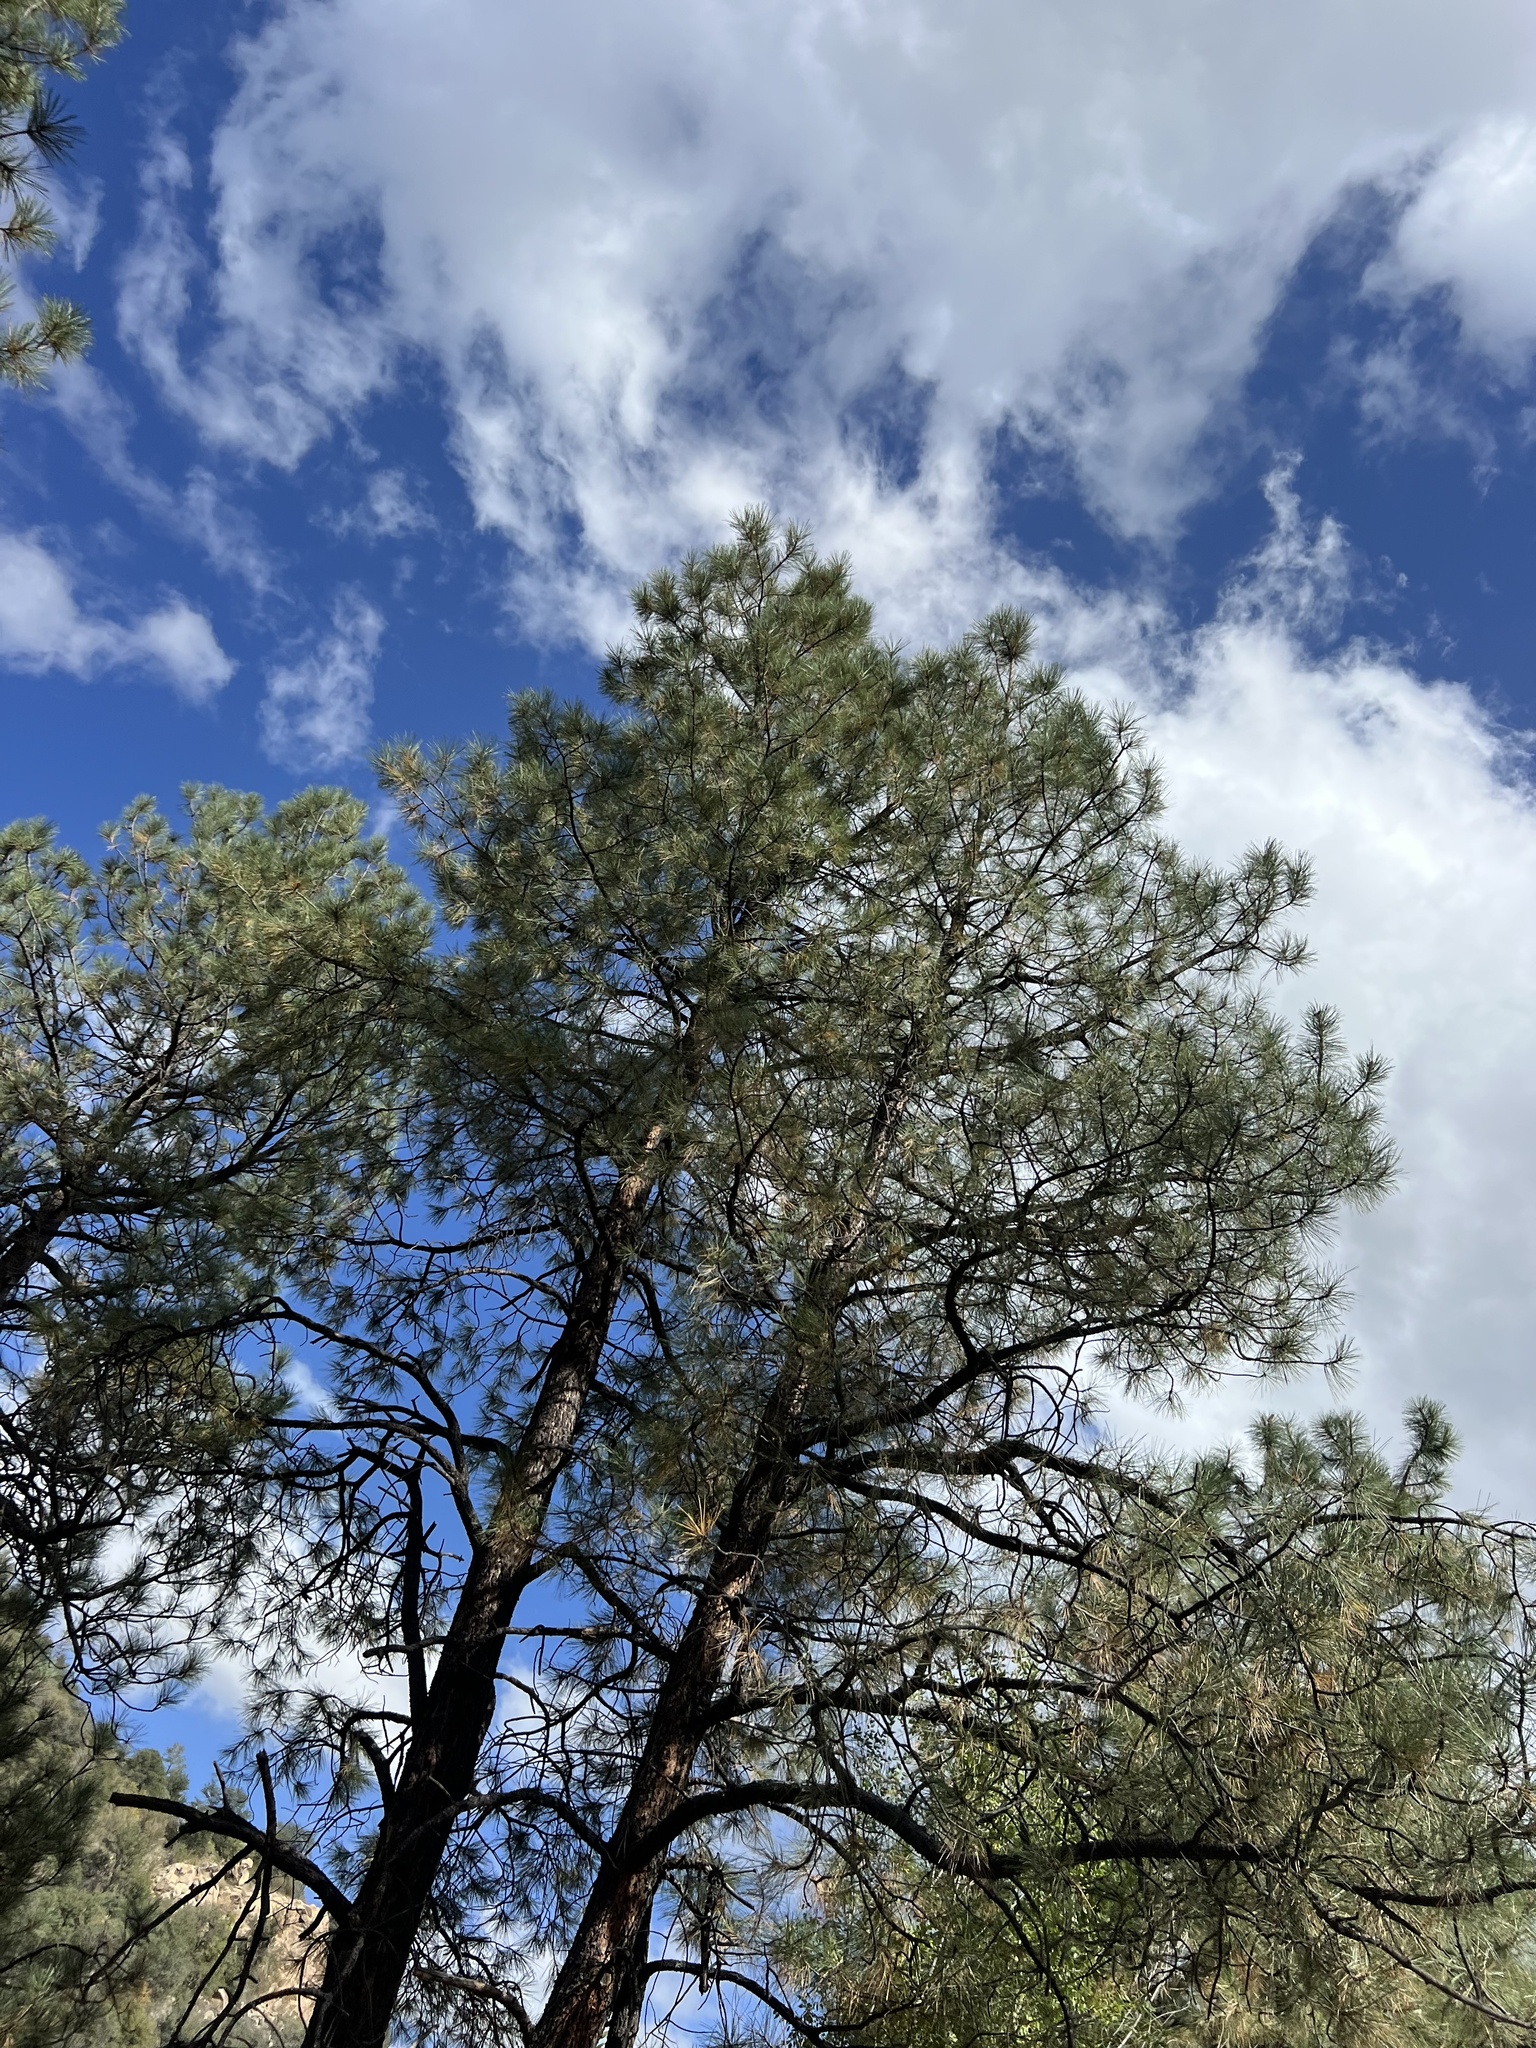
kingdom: Plantae
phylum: Tracheophyta
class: Pinopsida
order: Pinales
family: Pinaceae
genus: Pinus
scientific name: Pinus ponderosa
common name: Western yellow-pine
